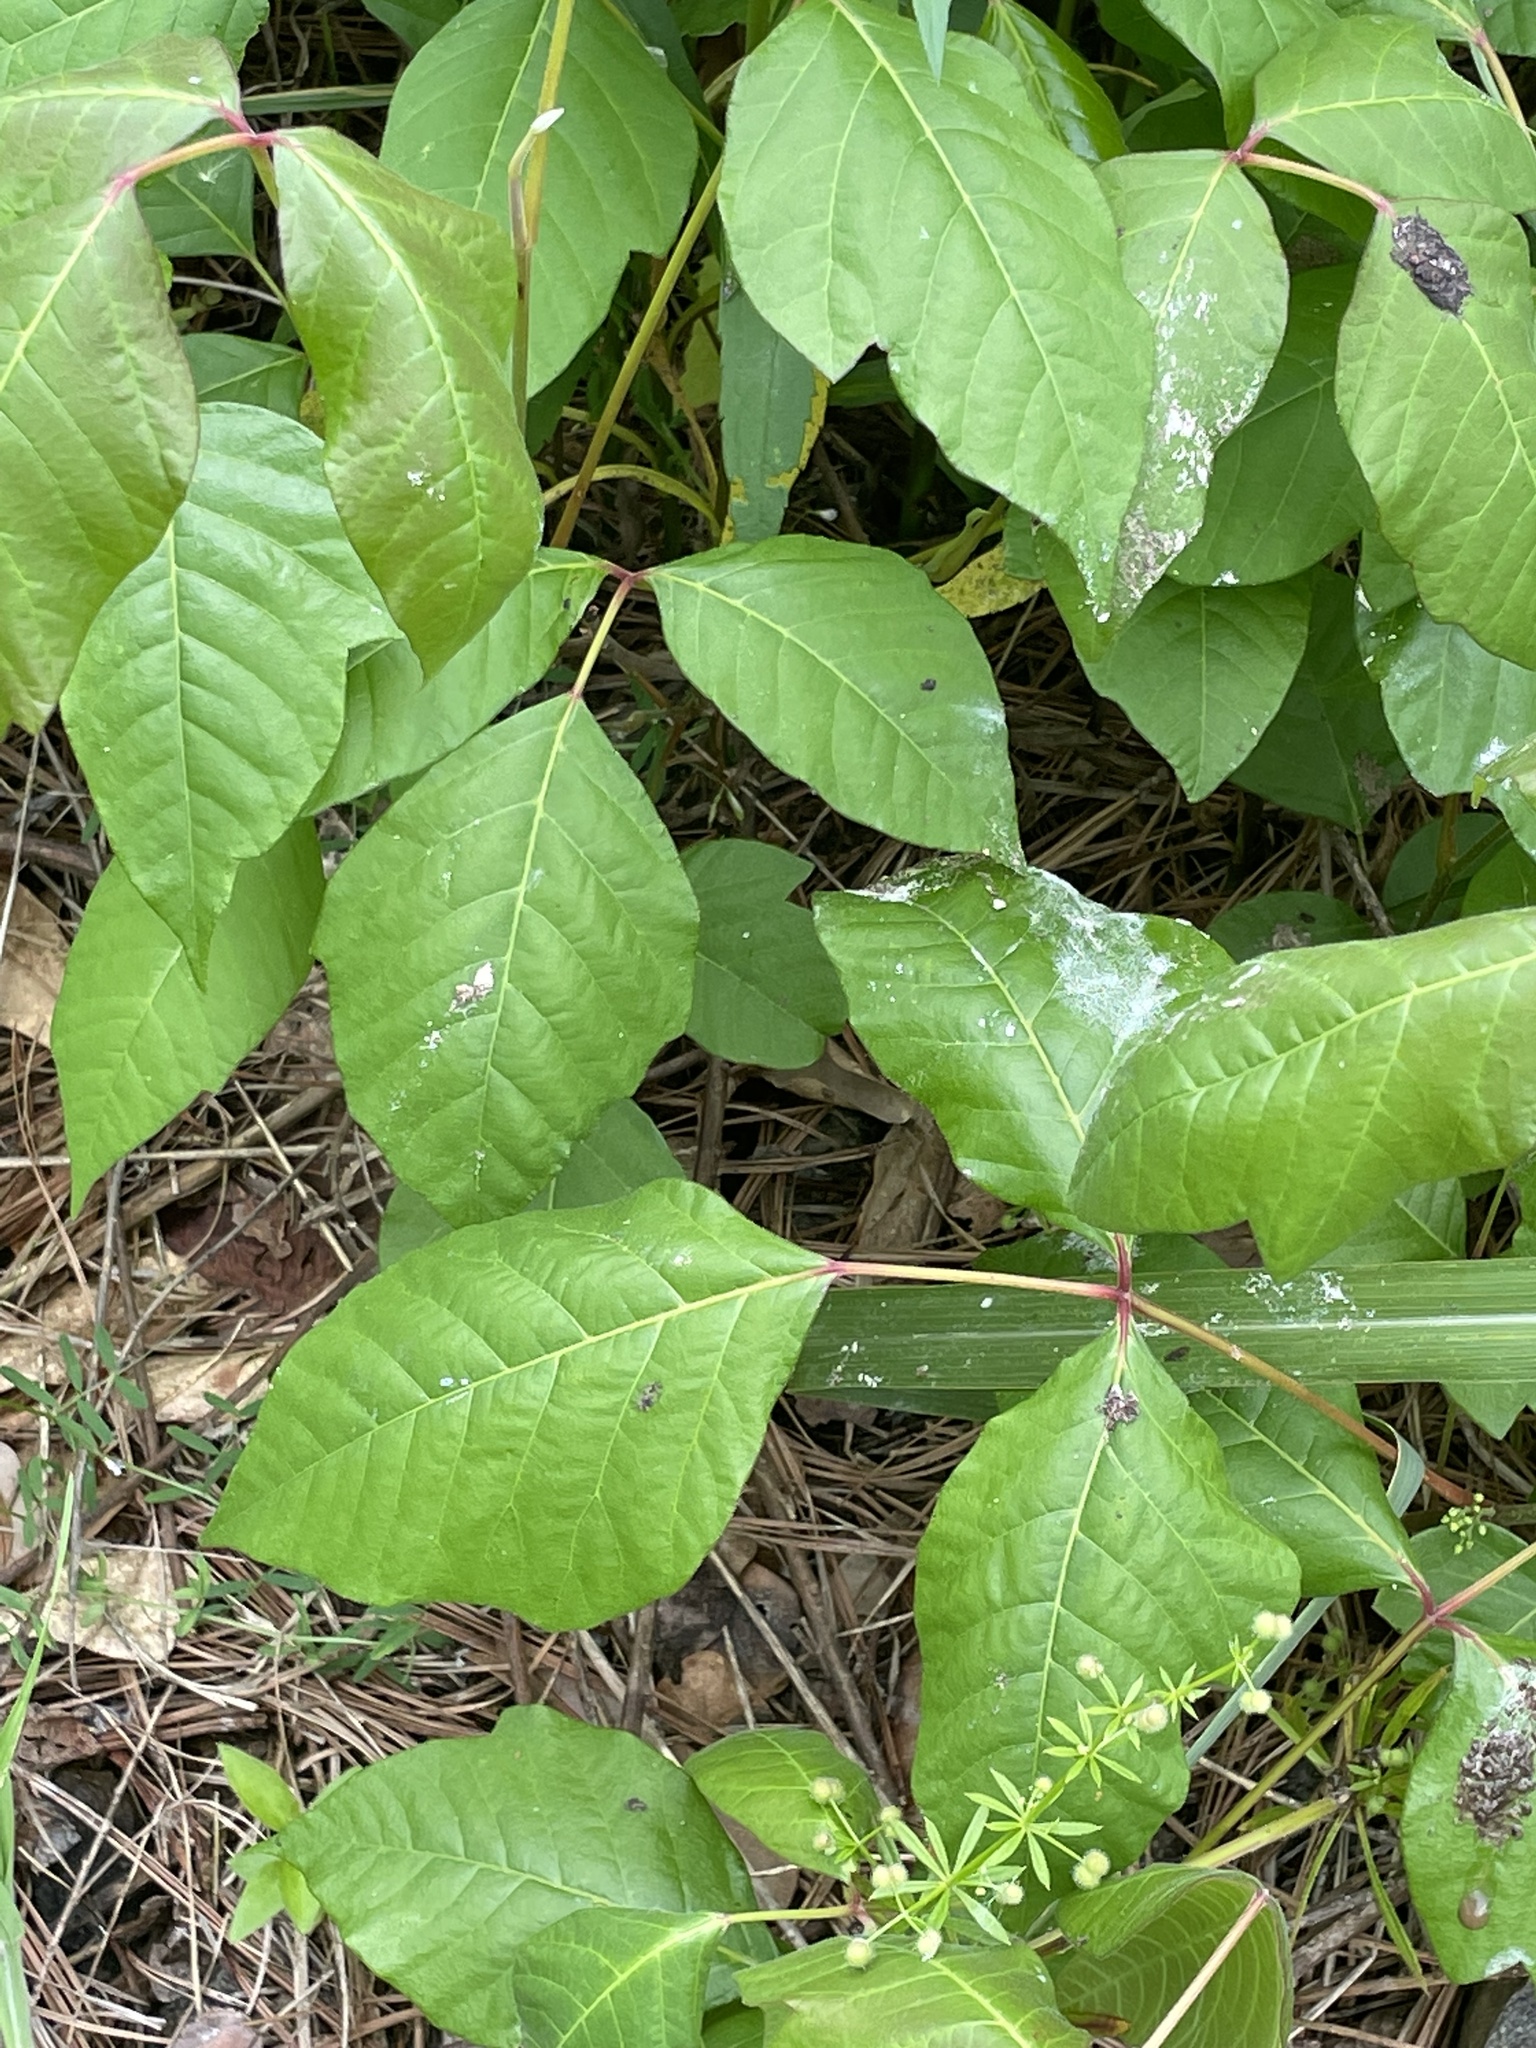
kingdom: Plantae
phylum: Tracheophyta
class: Magnoliopsida
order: Sapindales
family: Anacardiaceae
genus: Toxicodendron
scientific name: Toxicodendron radicans
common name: Poison ivy
